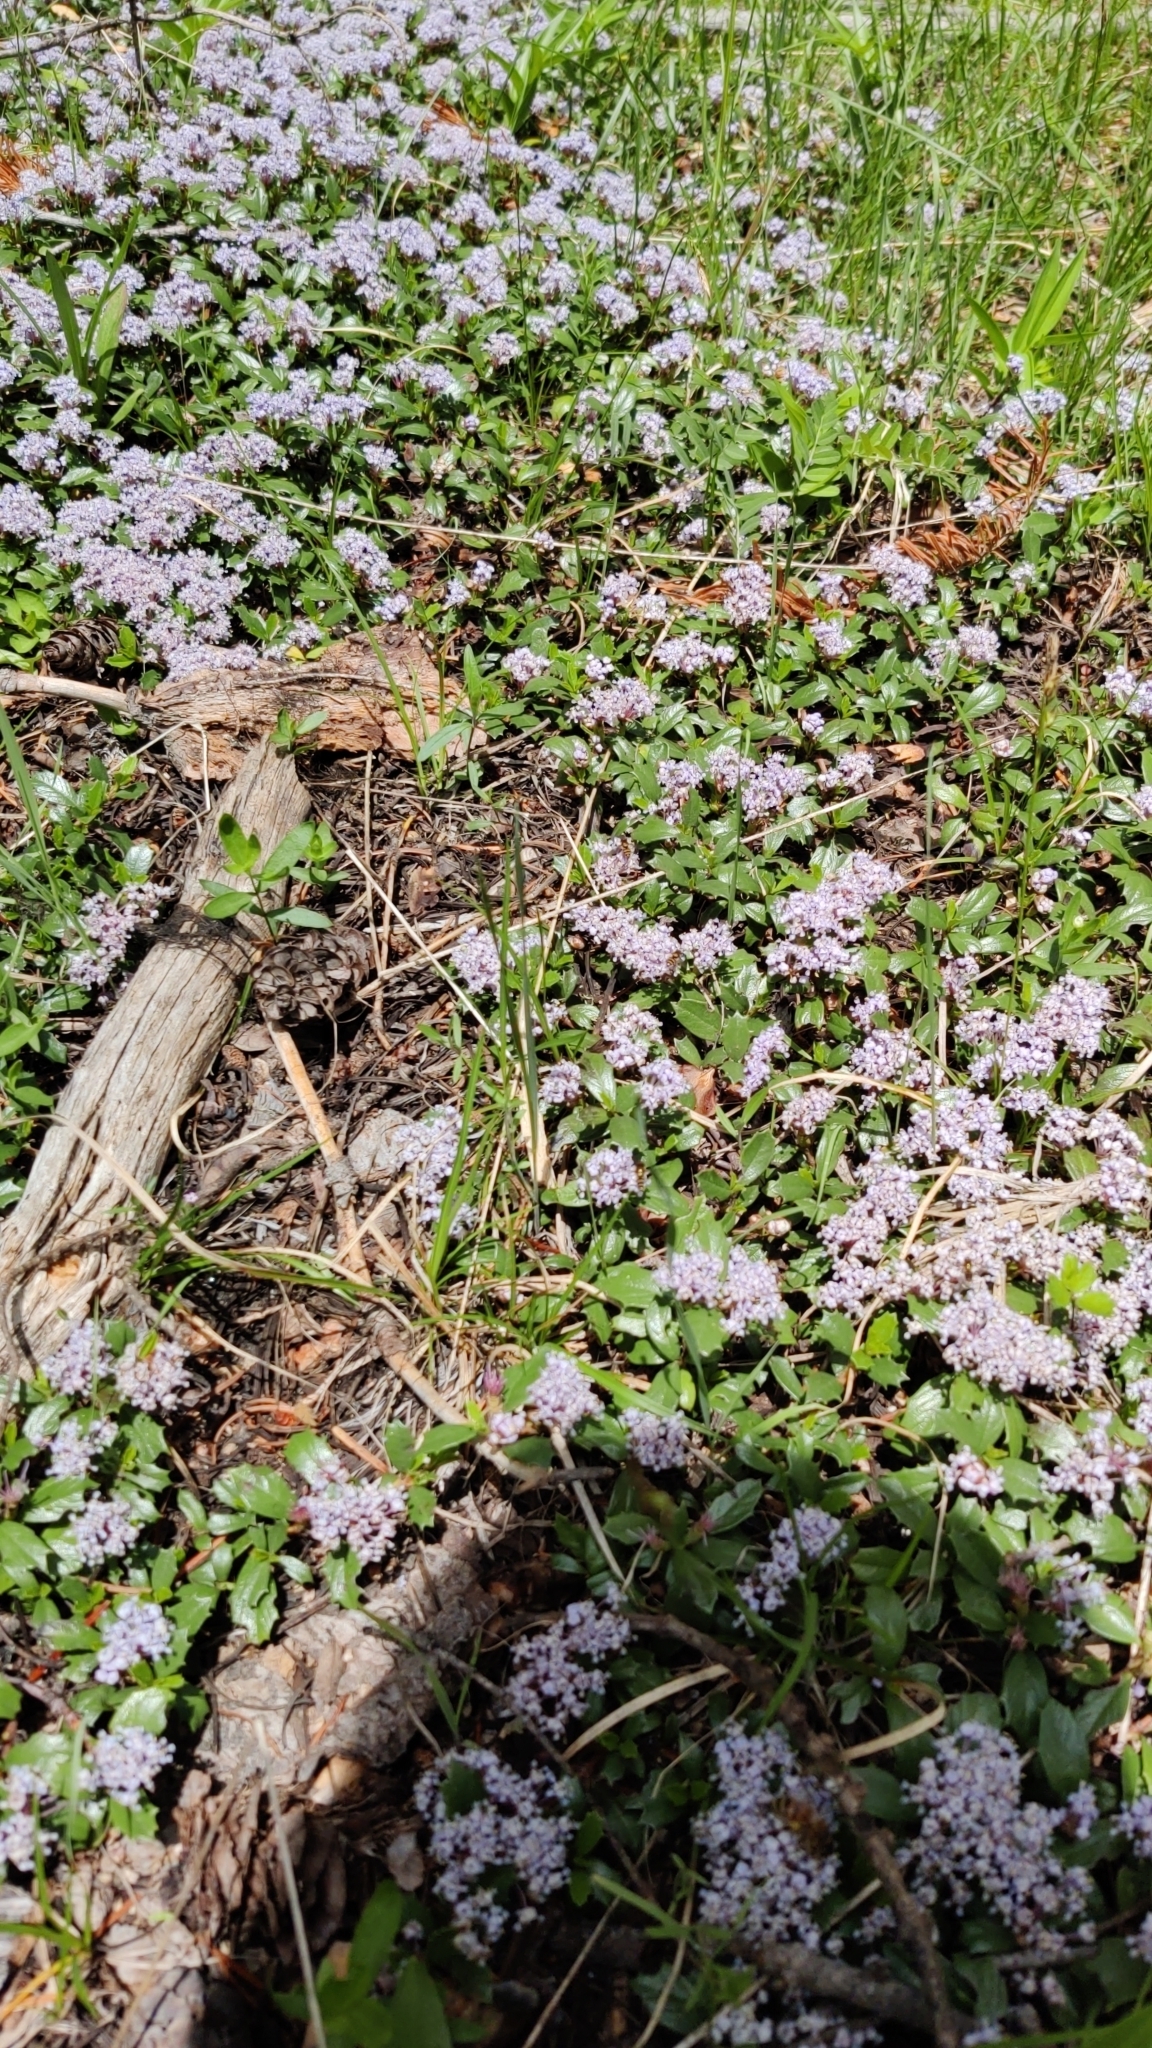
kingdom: Plantae
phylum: Tracheophyta
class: Magnoliopsida
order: Rosales
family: Rhamnaceae
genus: Ceanothus
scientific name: Ceanothus prostratus
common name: Mahala-mat
